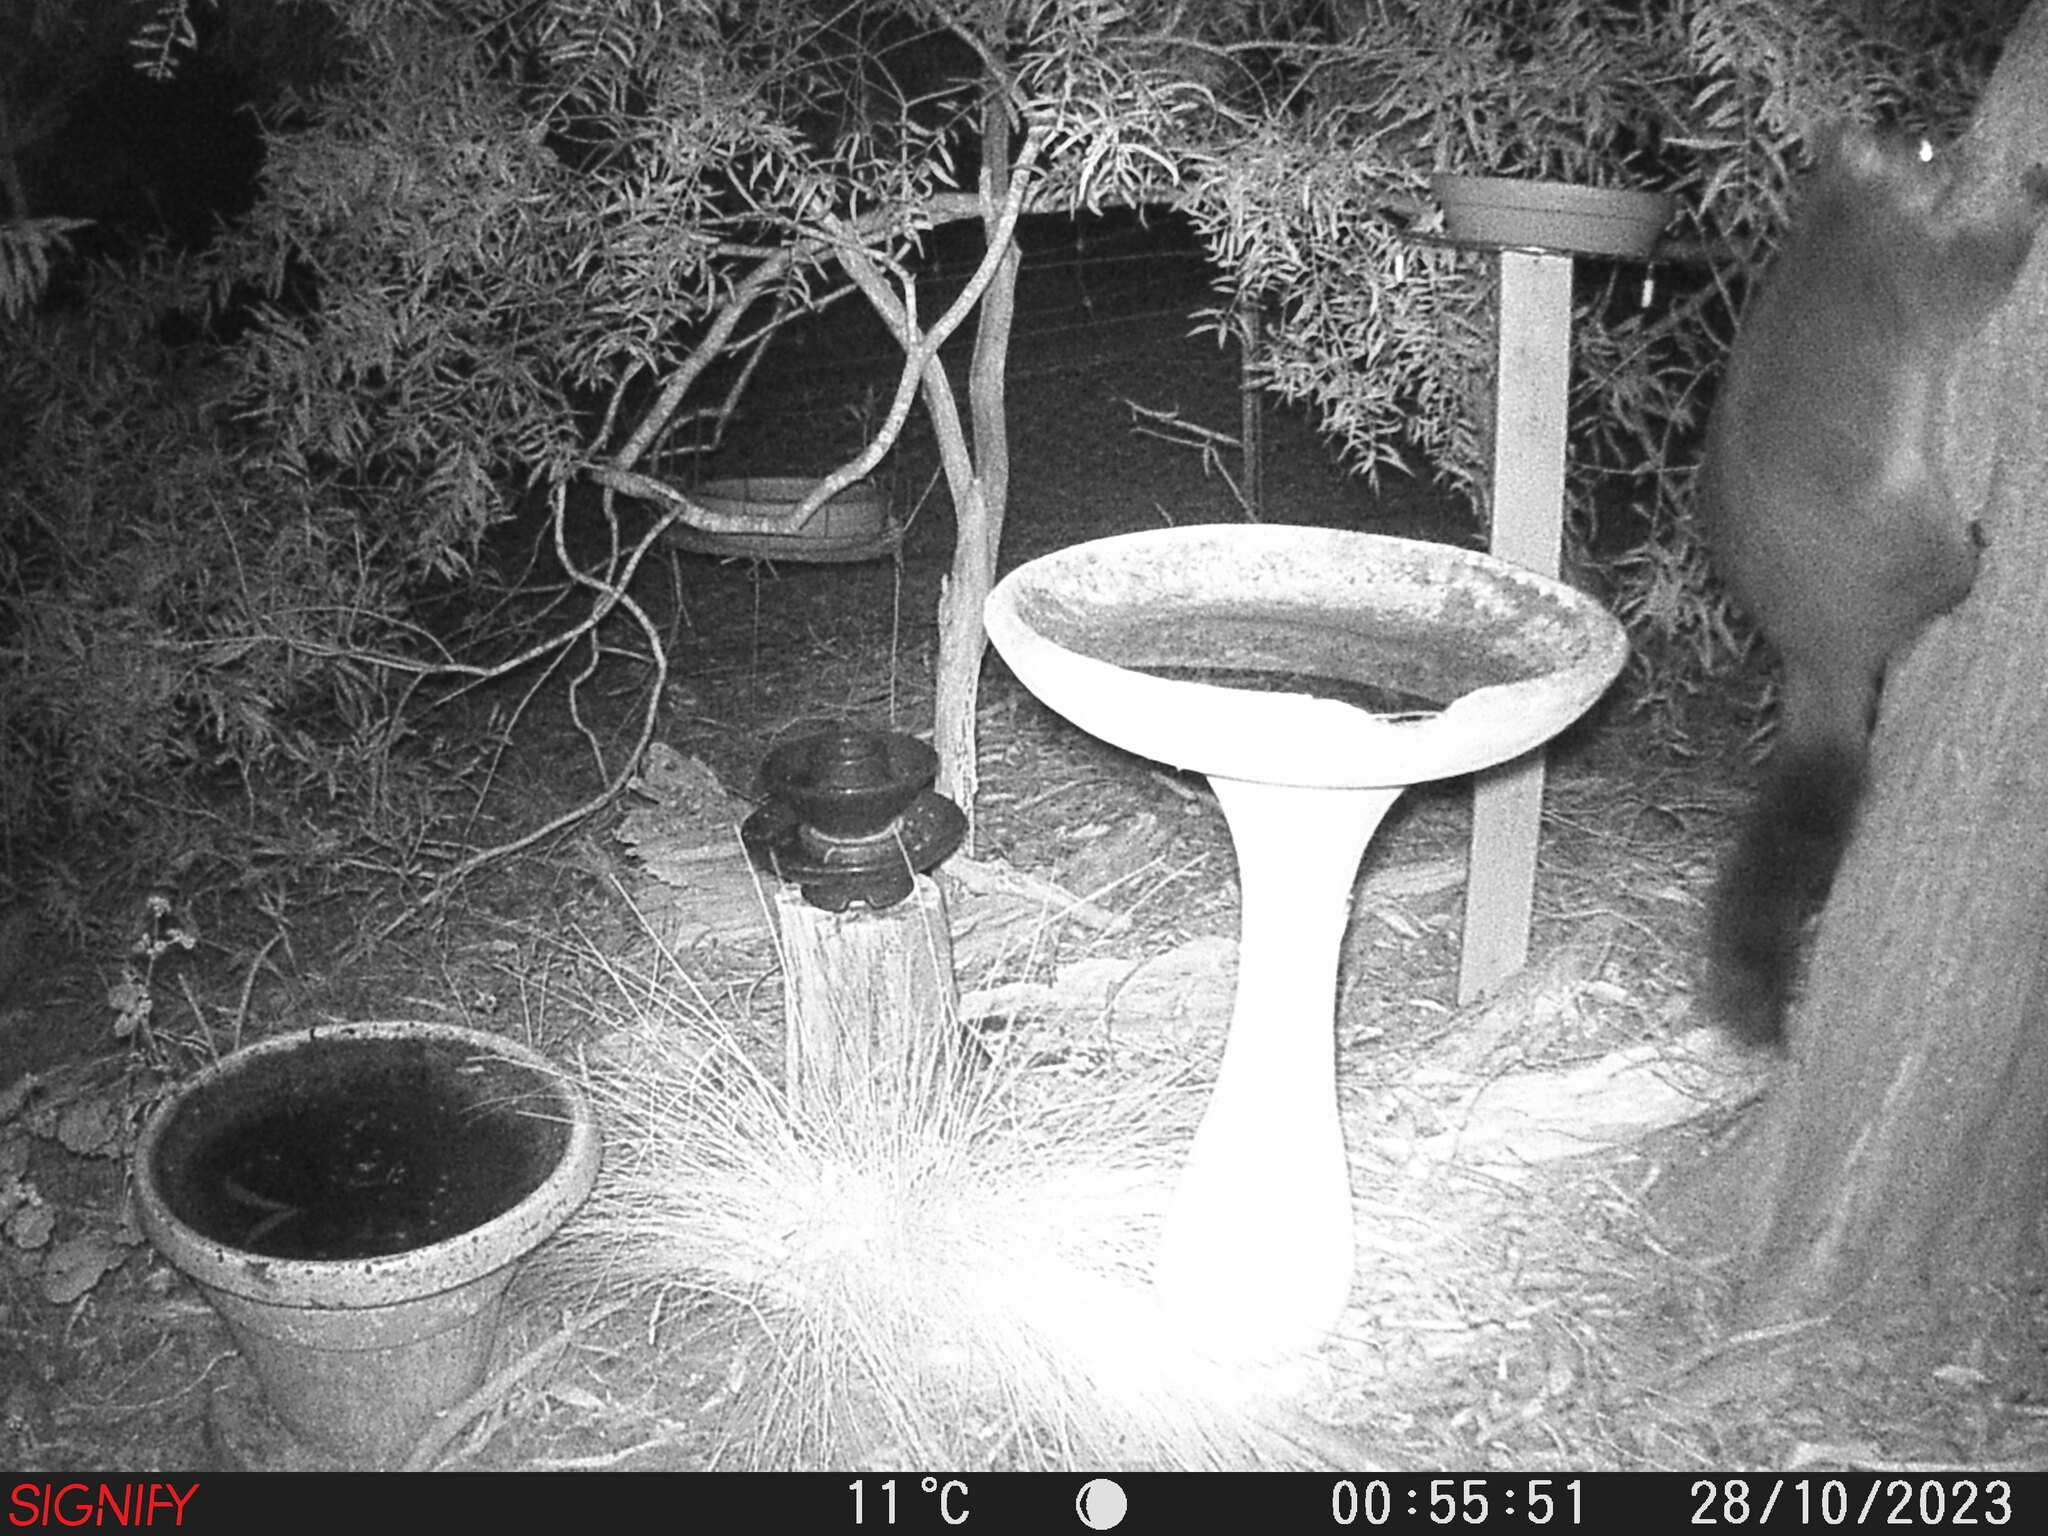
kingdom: Animalia
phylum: Chordata
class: Mammalia
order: Diprotodontia
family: Phalangeridae
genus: Trichosurus
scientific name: Trichosurus vulpecula
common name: Common brushtail
